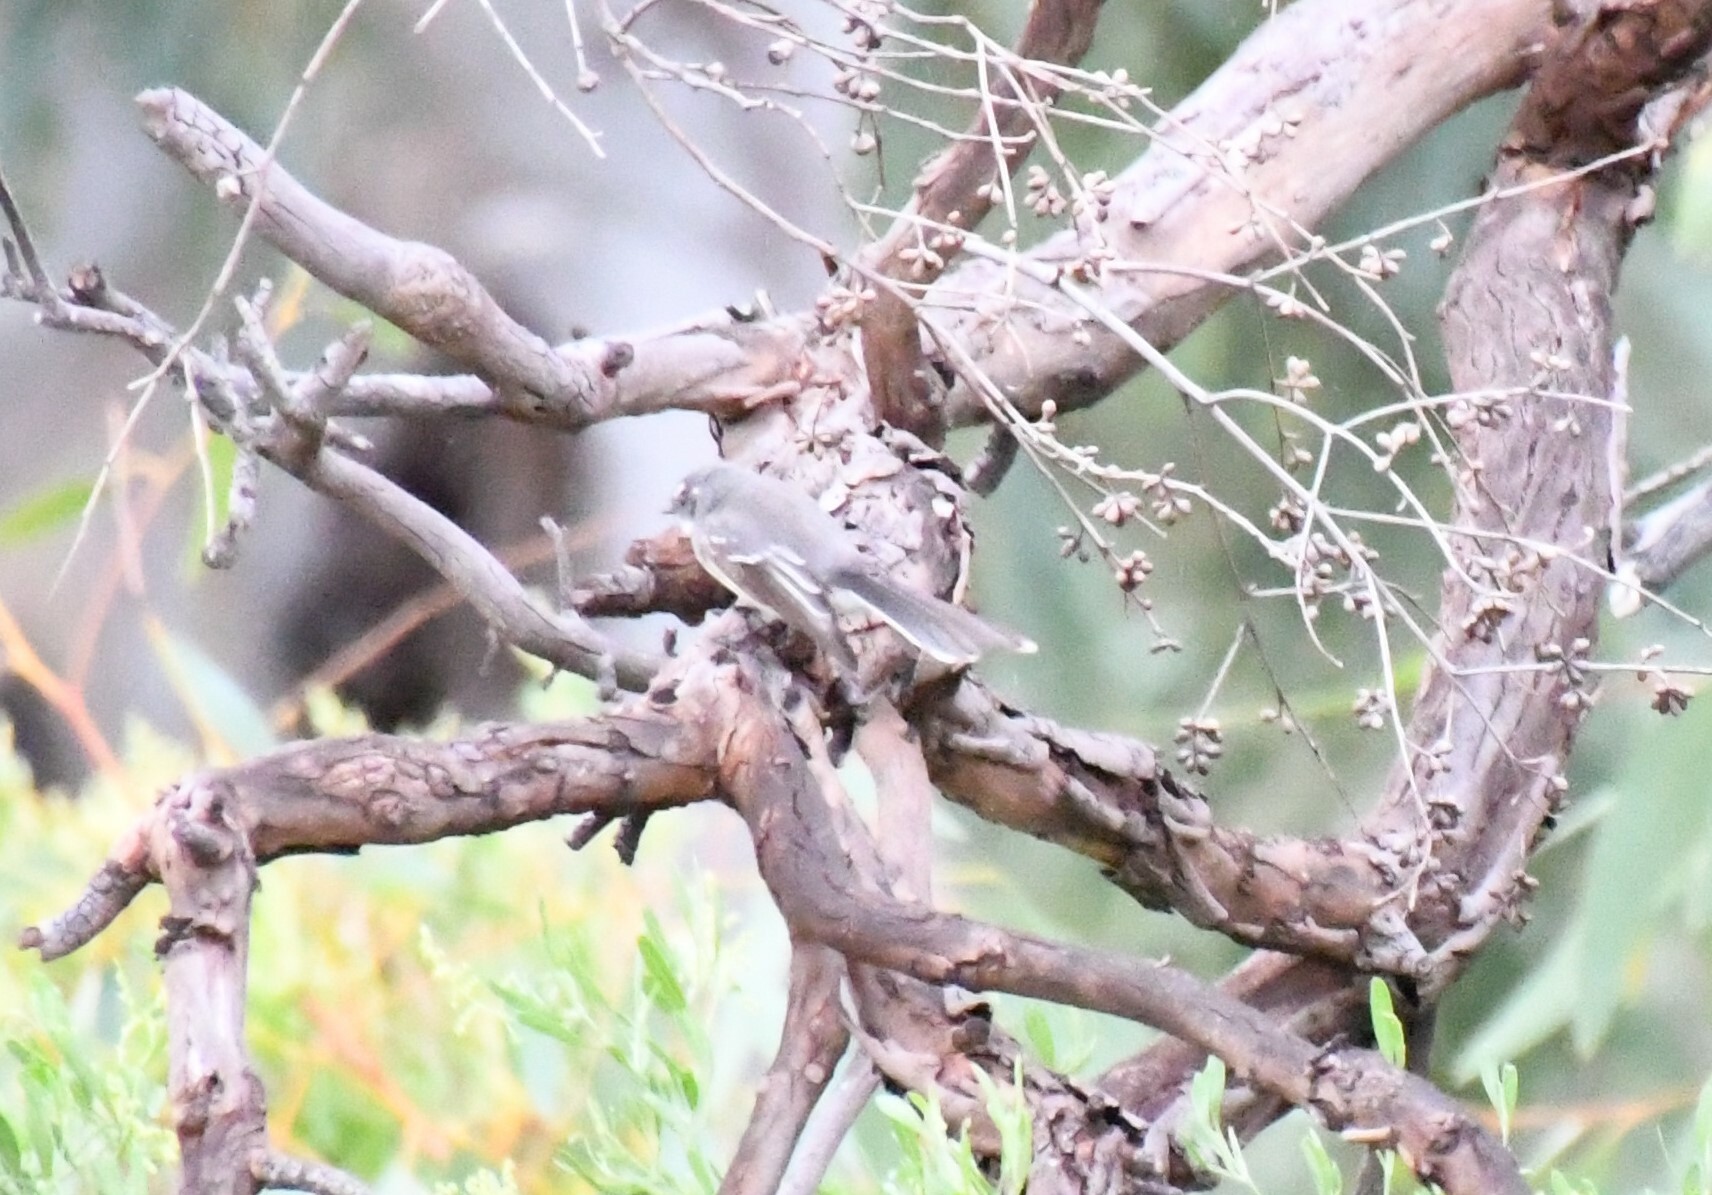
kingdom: Animalia
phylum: Chordata
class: Aves
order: Passeriformes
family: Rhipiduridae
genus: Rhipidura
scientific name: Rhipidura albiscapa
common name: Grey fantail
